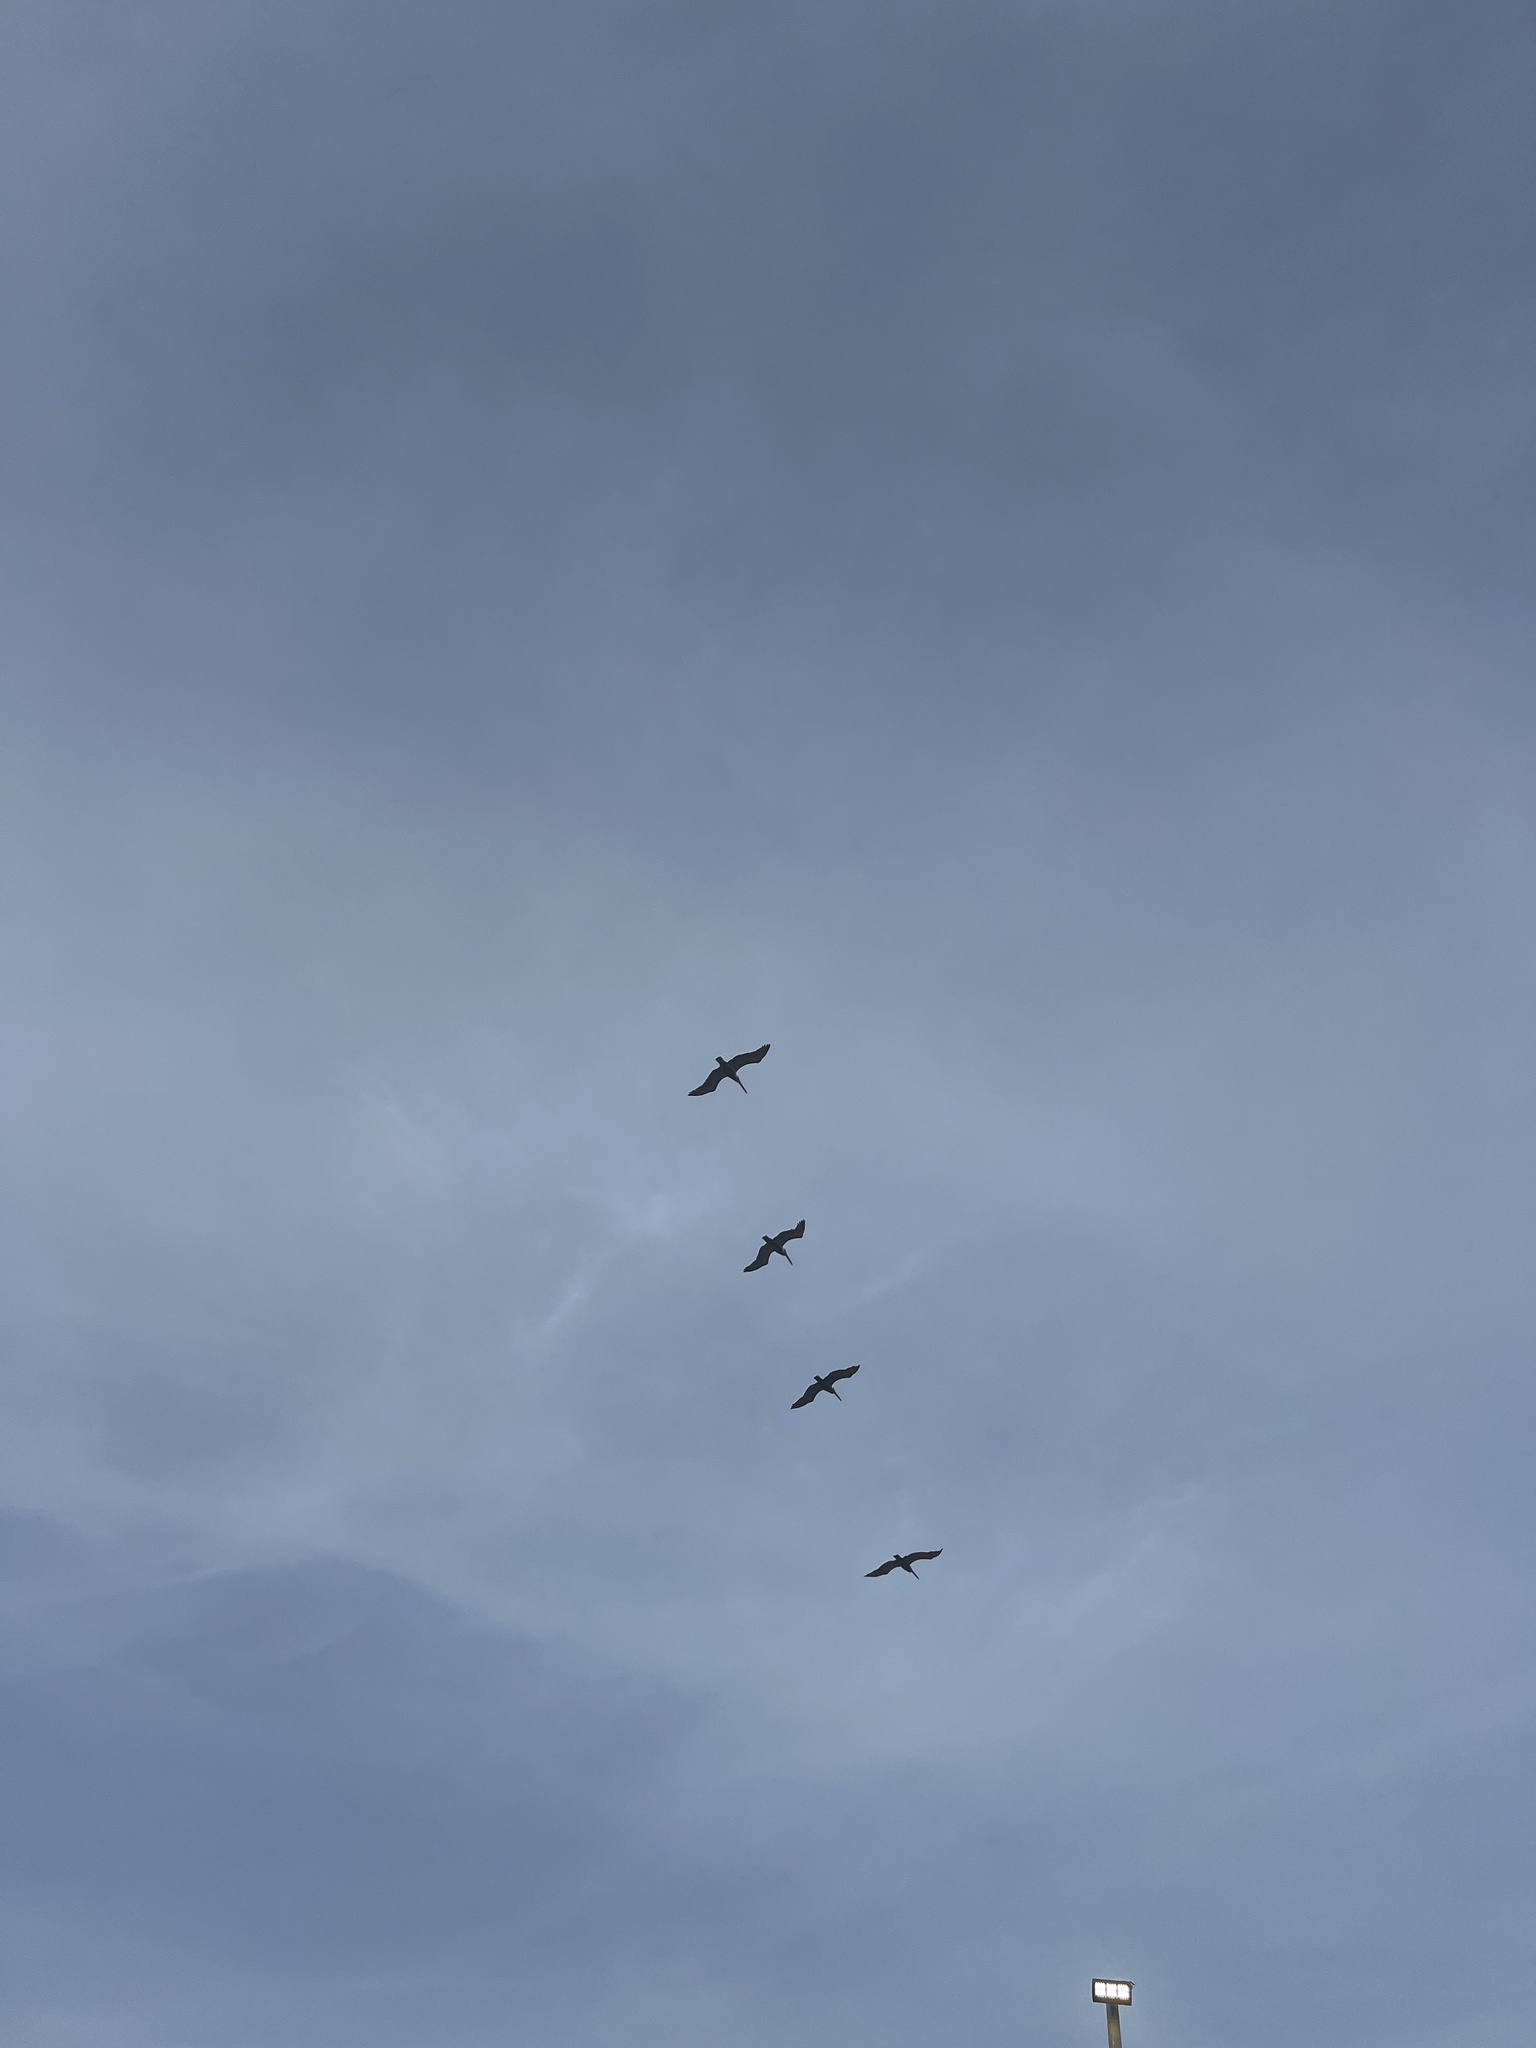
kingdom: Animalia
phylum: Chordata
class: Aves
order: Pelecaniformes
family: Pelecanidae
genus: Pelecanus
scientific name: Pelecanus occidentalis
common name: Brown pelican
